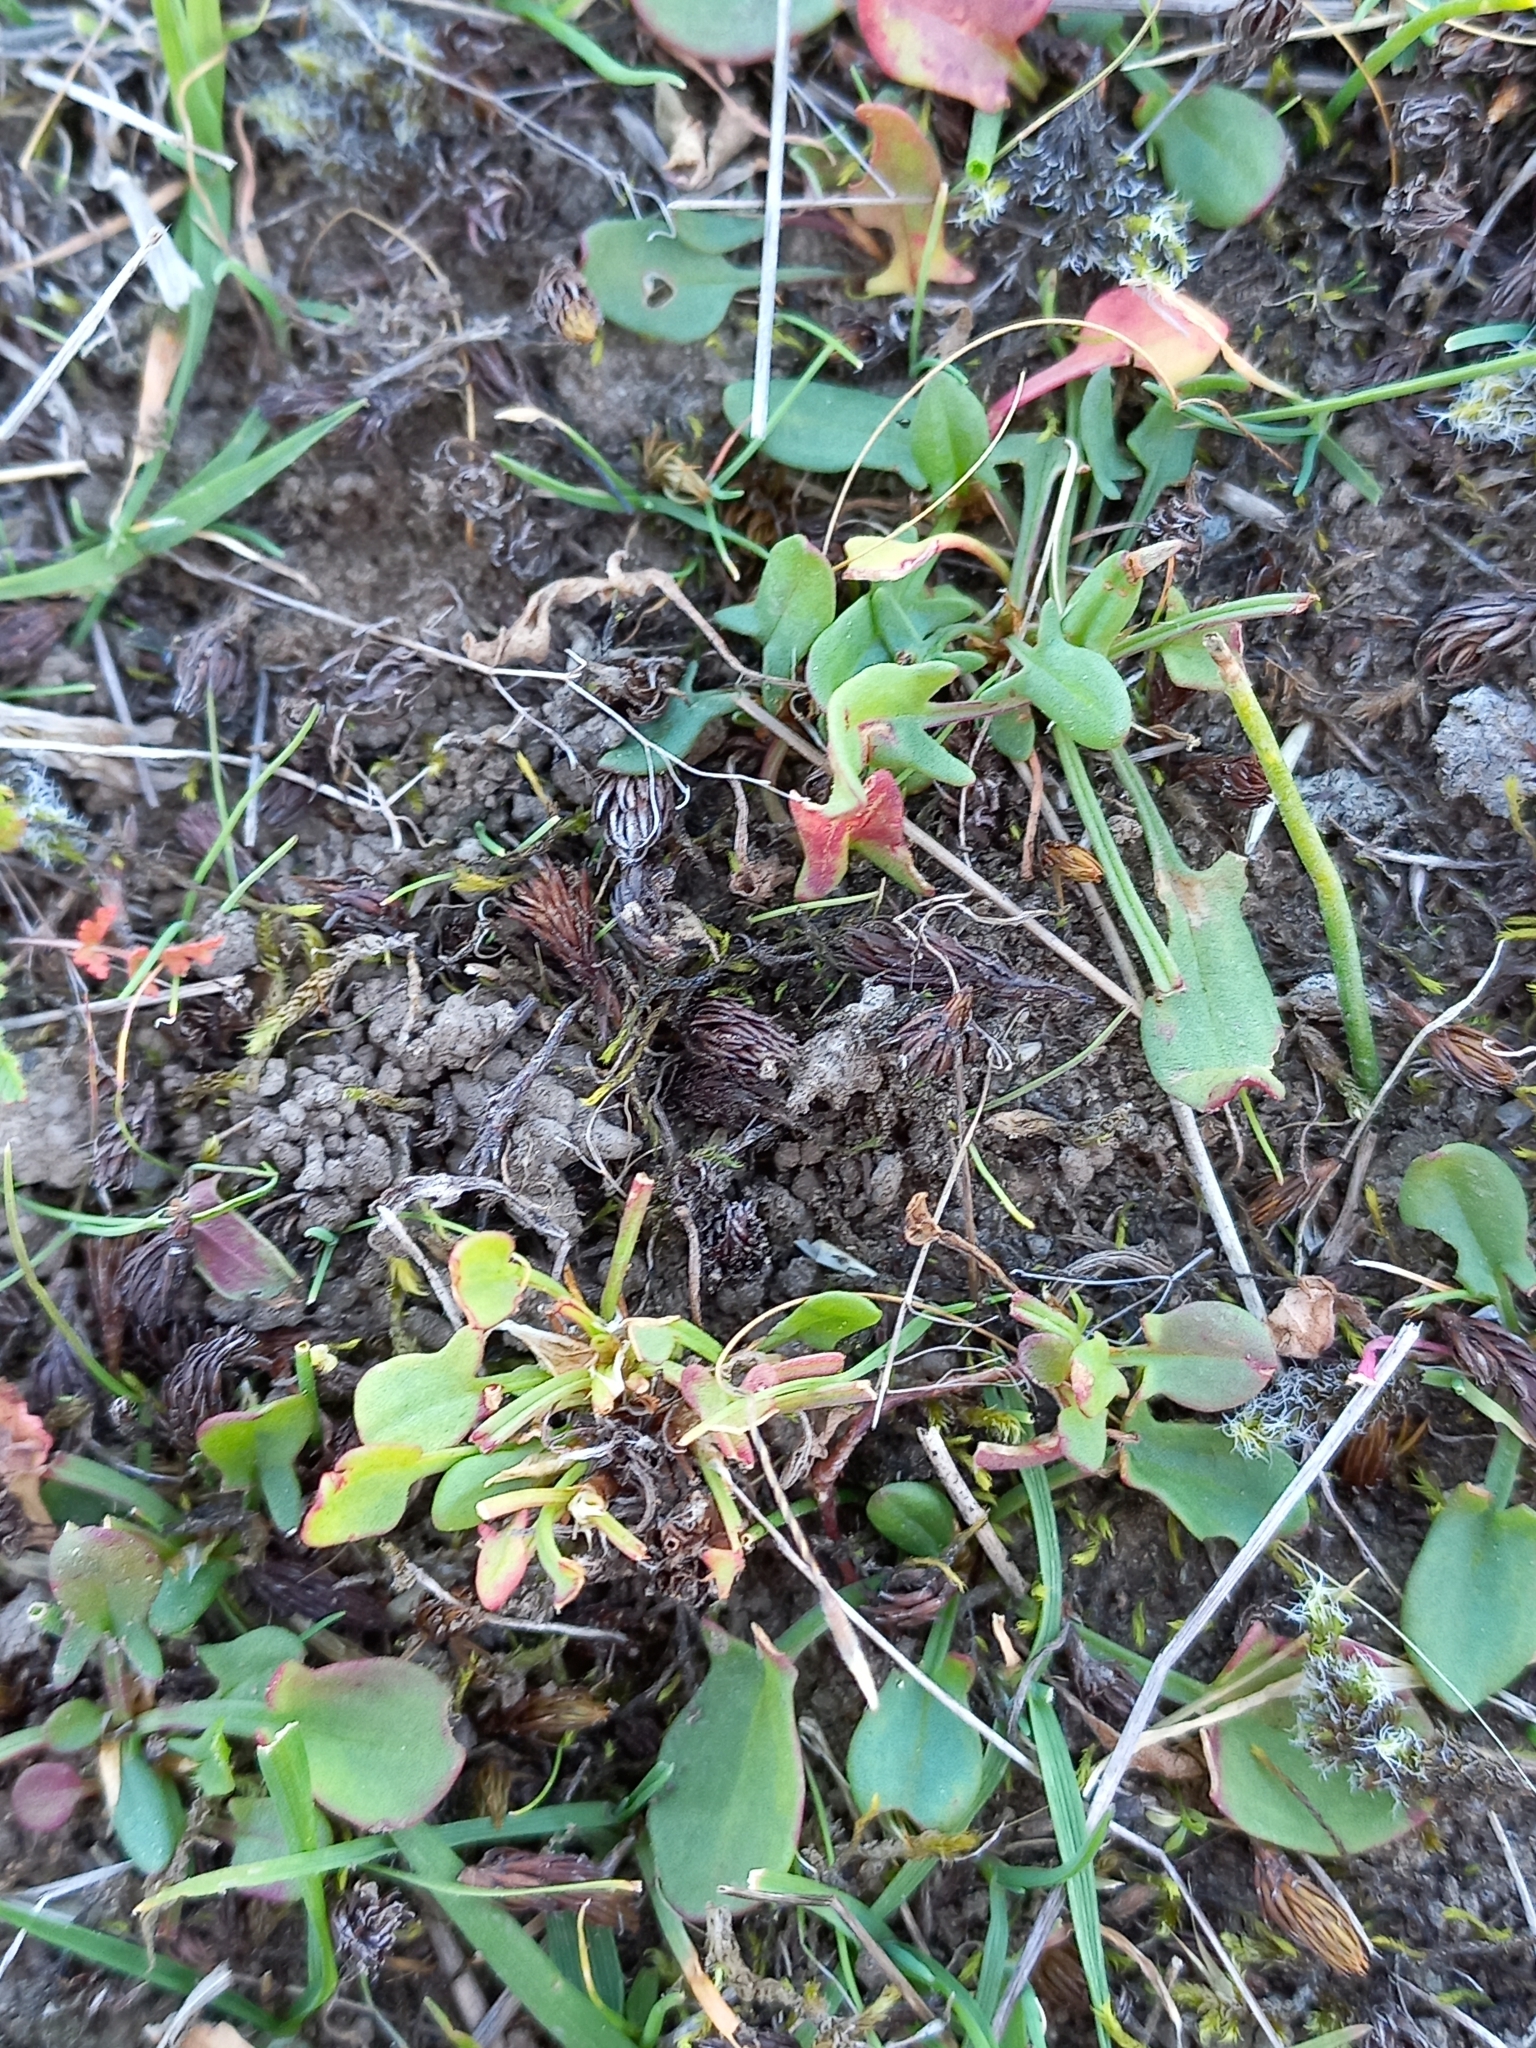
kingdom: Plantae
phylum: Tracheophyta
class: Magnoliopsida
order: Caryophyllales
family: Polygonaceae
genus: Rumex
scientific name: Rumex acetosella
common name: Common sheep sorrel
